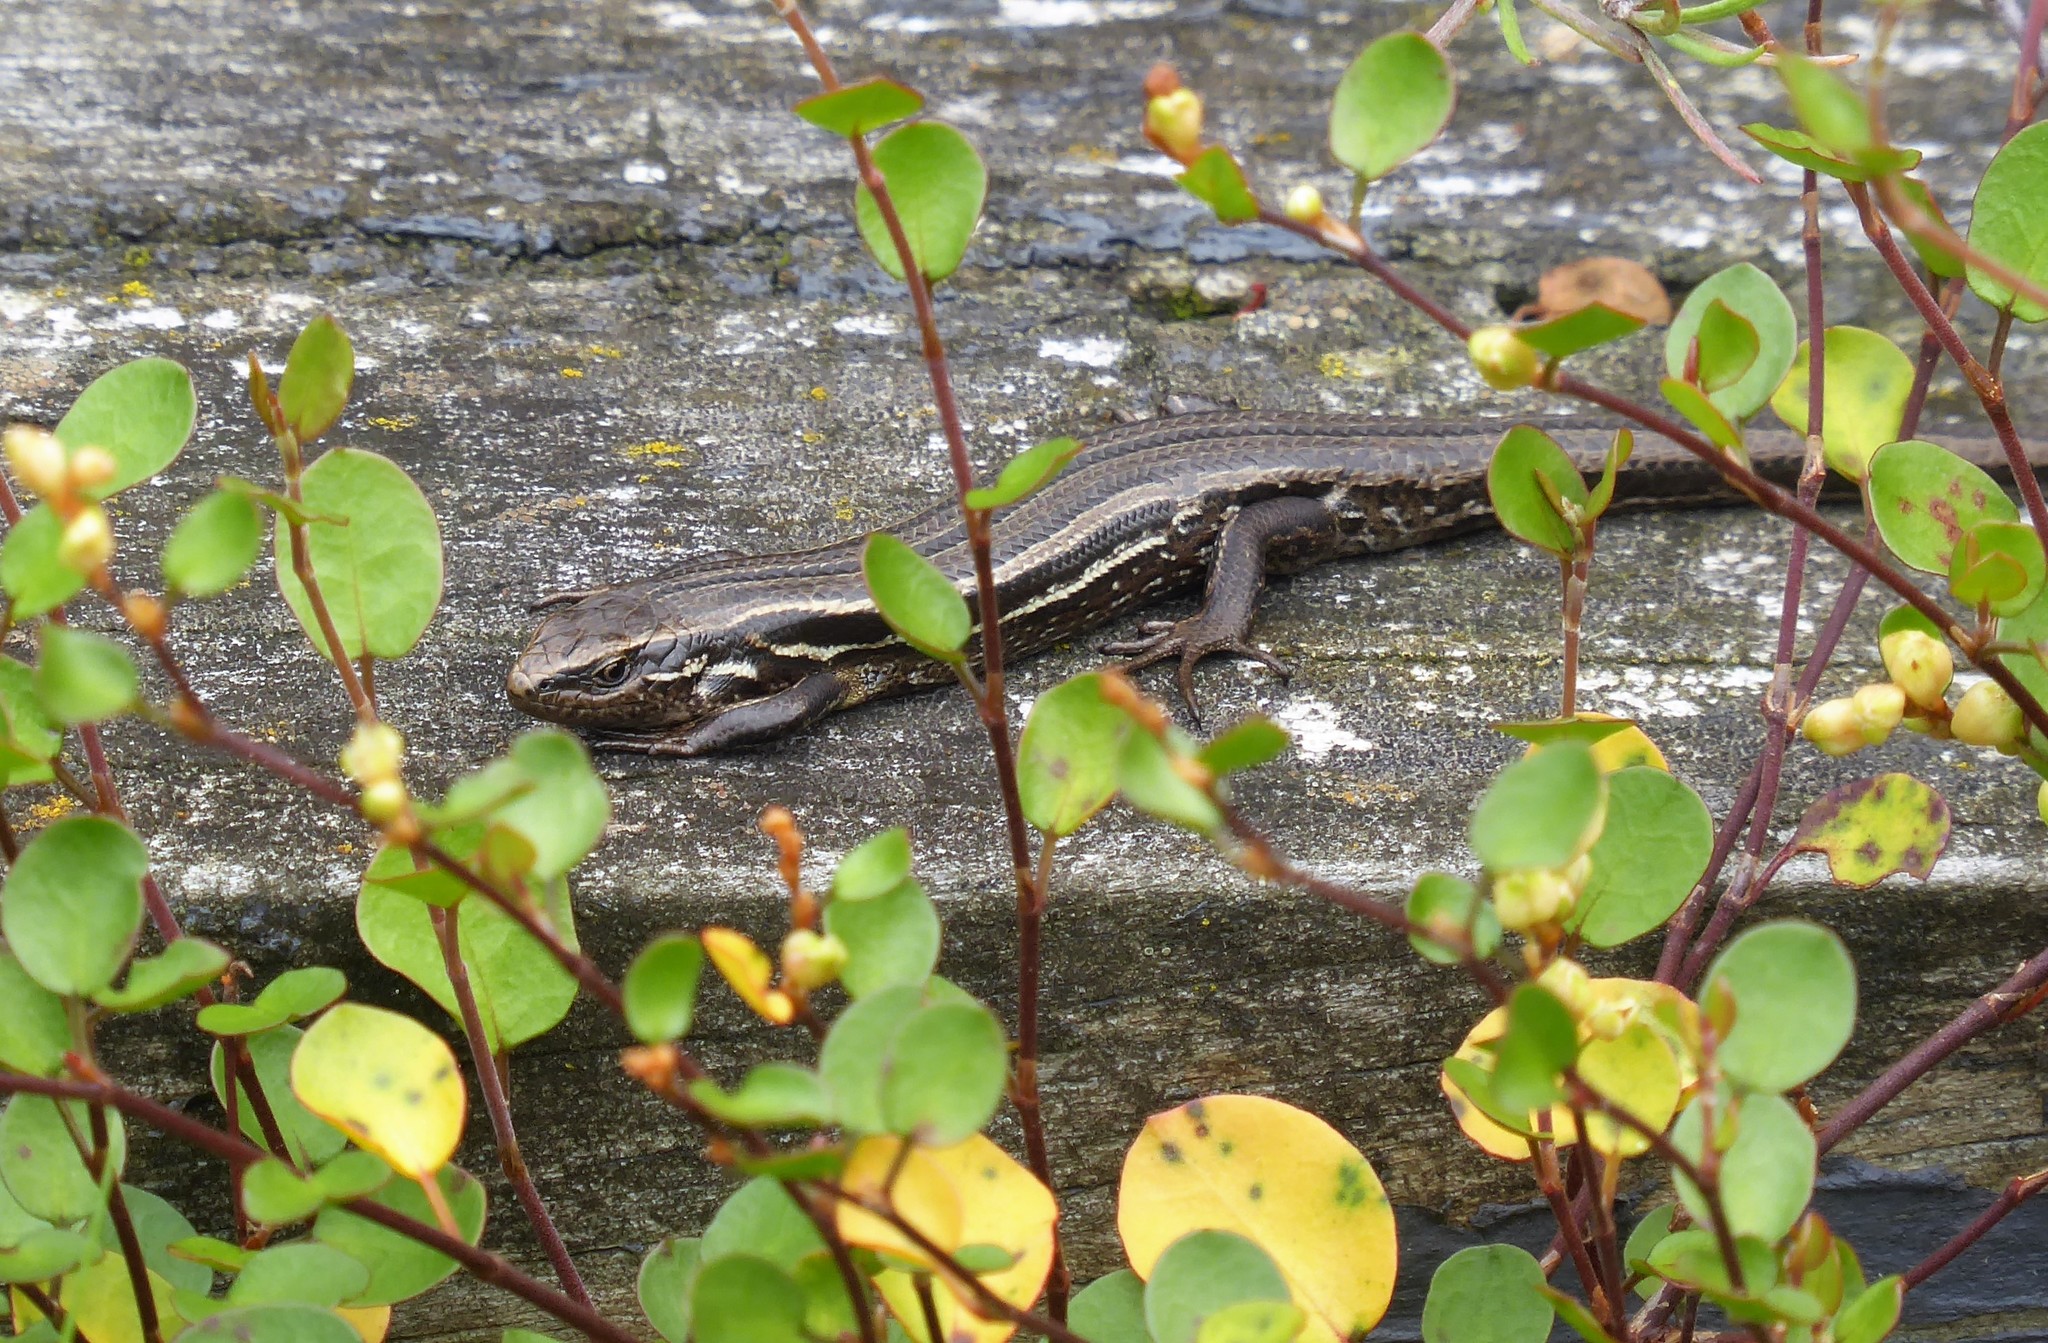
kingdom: Animalia
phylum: Chordata
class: Squamata
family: Scincidae
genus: Oligosoma
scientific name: Oligosoma polychroma
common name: Common new zealand skink
